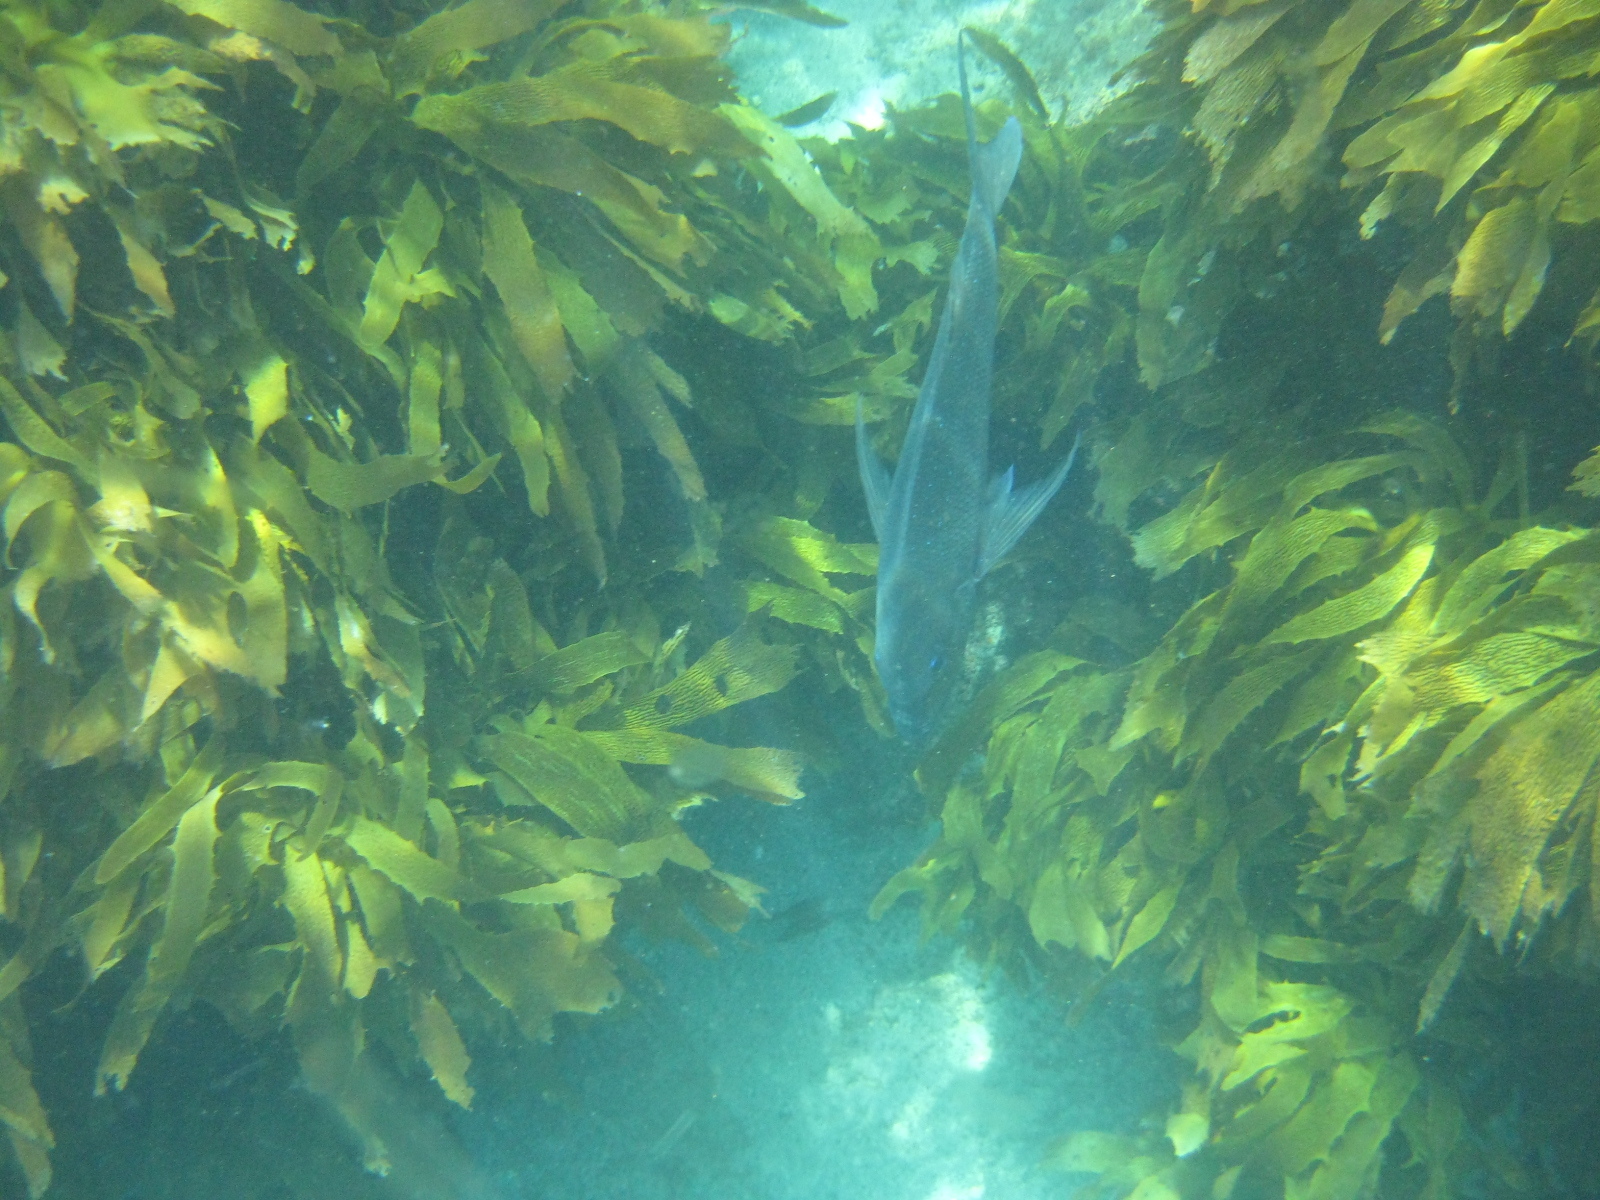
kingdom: Animalia
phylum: Chordata
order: Perciformes
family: Sparidae
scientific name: Sparidae
